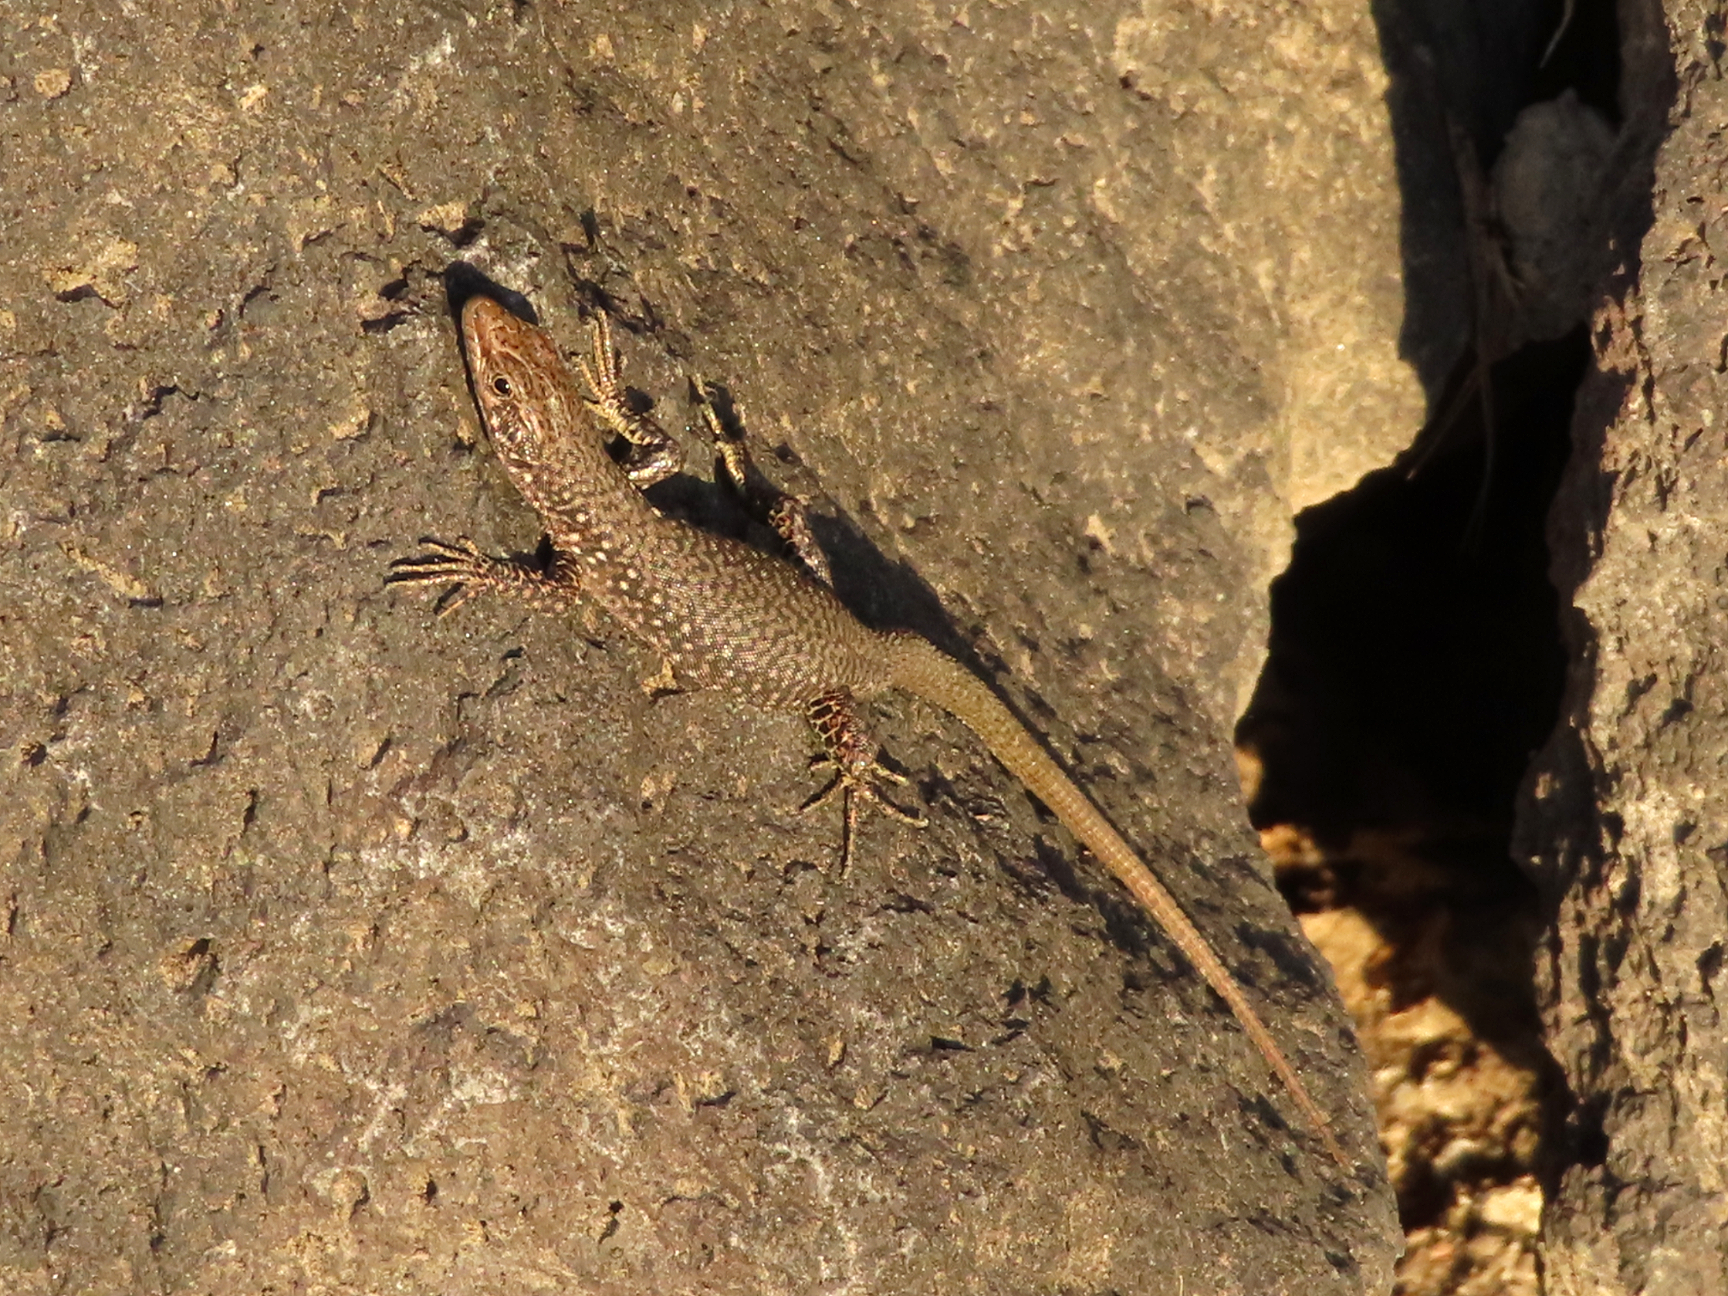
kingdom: Animalia
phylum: Chordata
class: Squamata
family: Lacertidae
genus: Darevskia
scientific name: Darevskia
